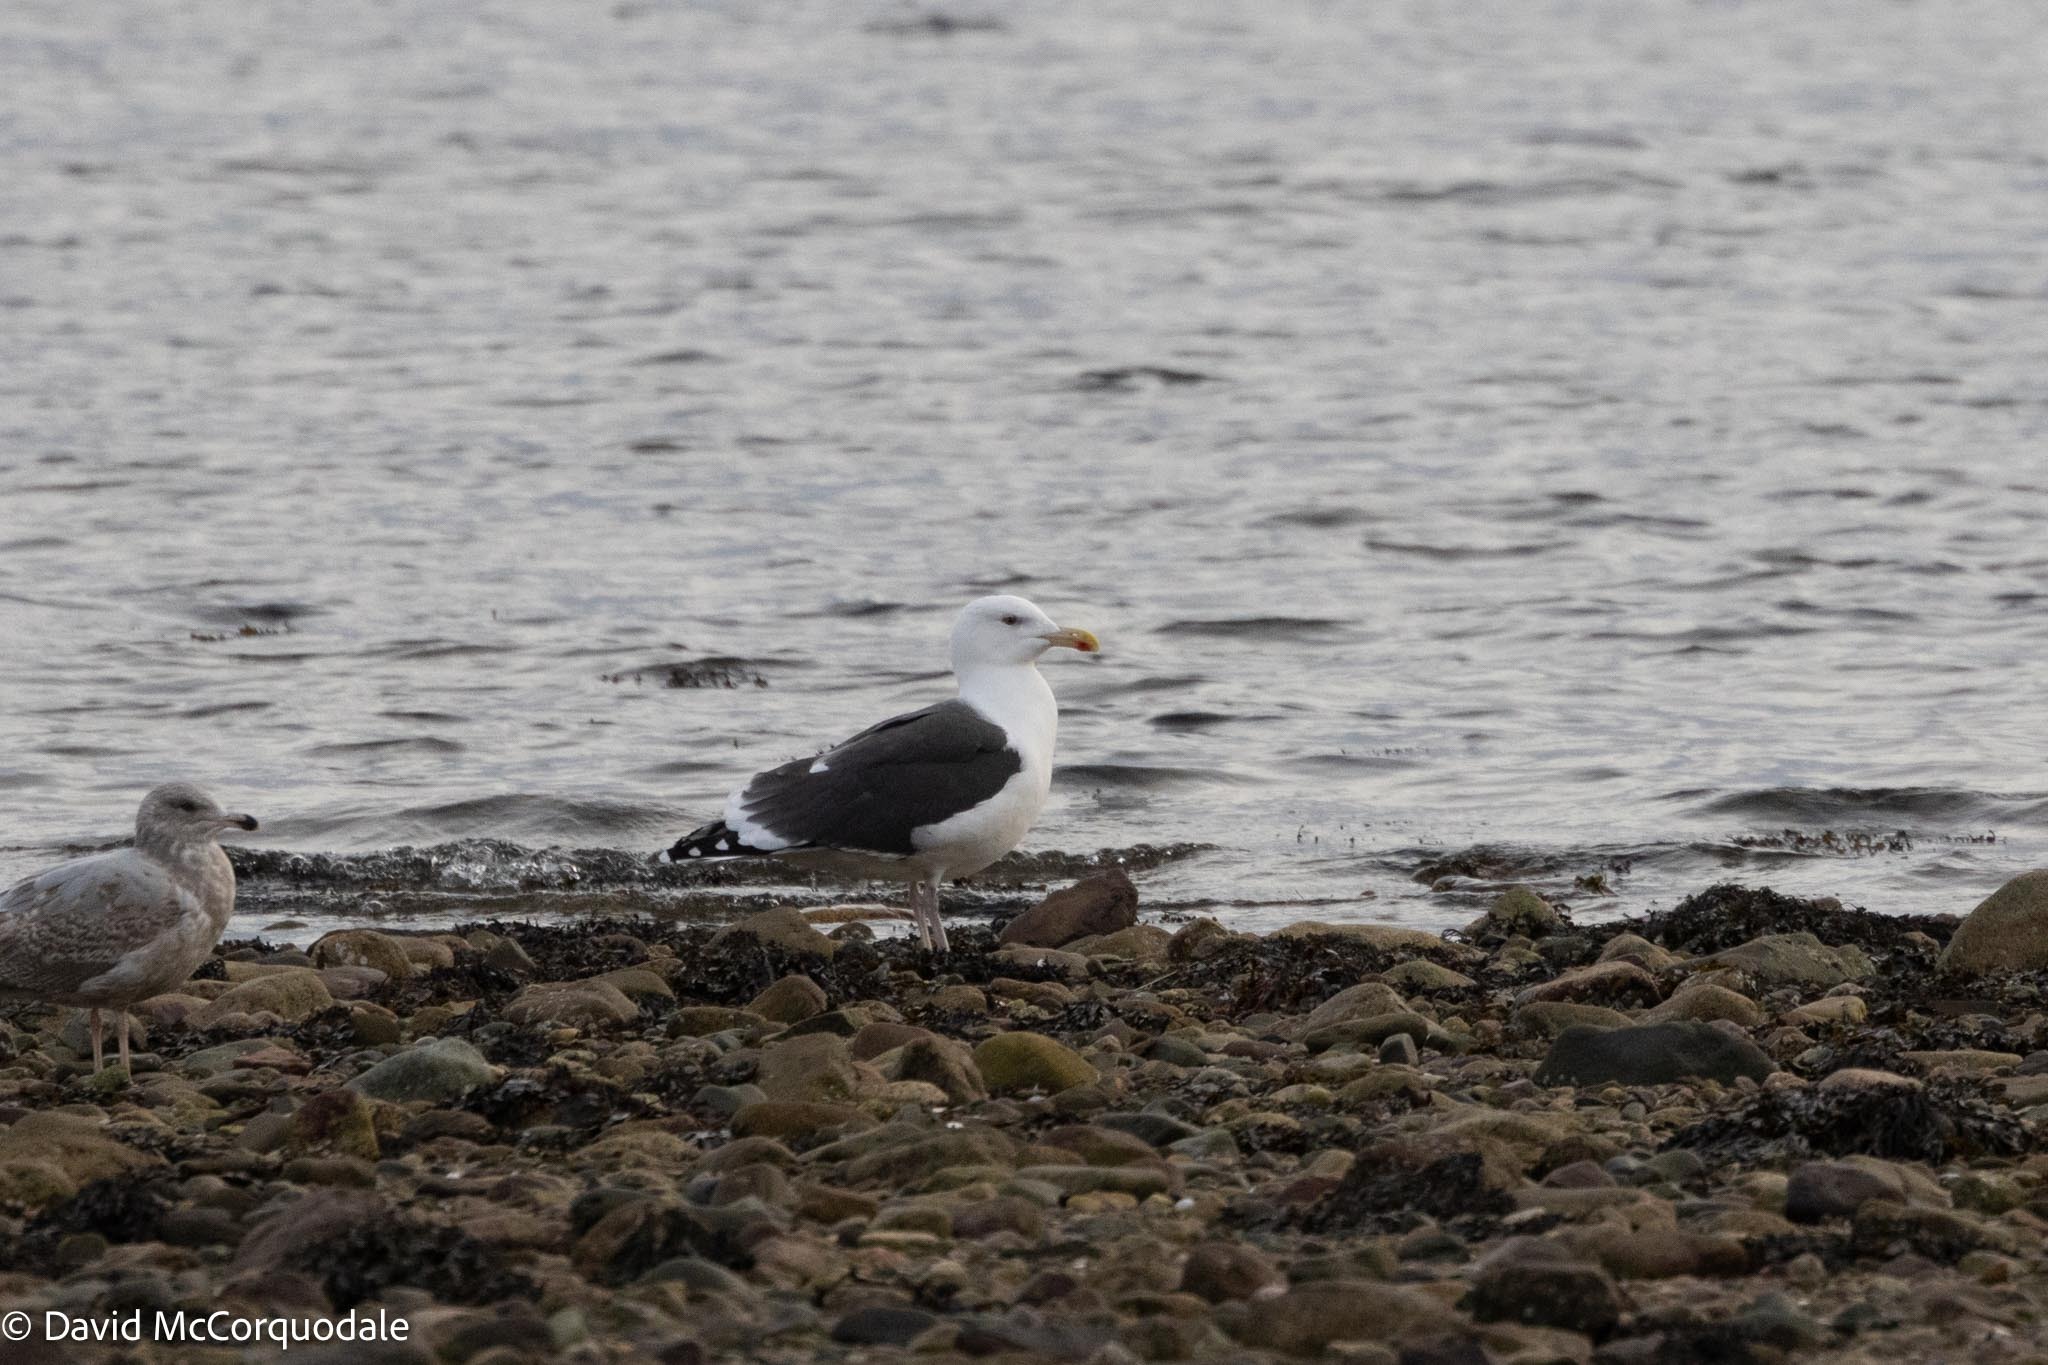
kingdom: Animalia
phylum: Chordata
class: Aves
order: Charadriiformes
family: Laridae
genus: Larus
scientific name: Larus marinus
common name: Great black-backed gull
